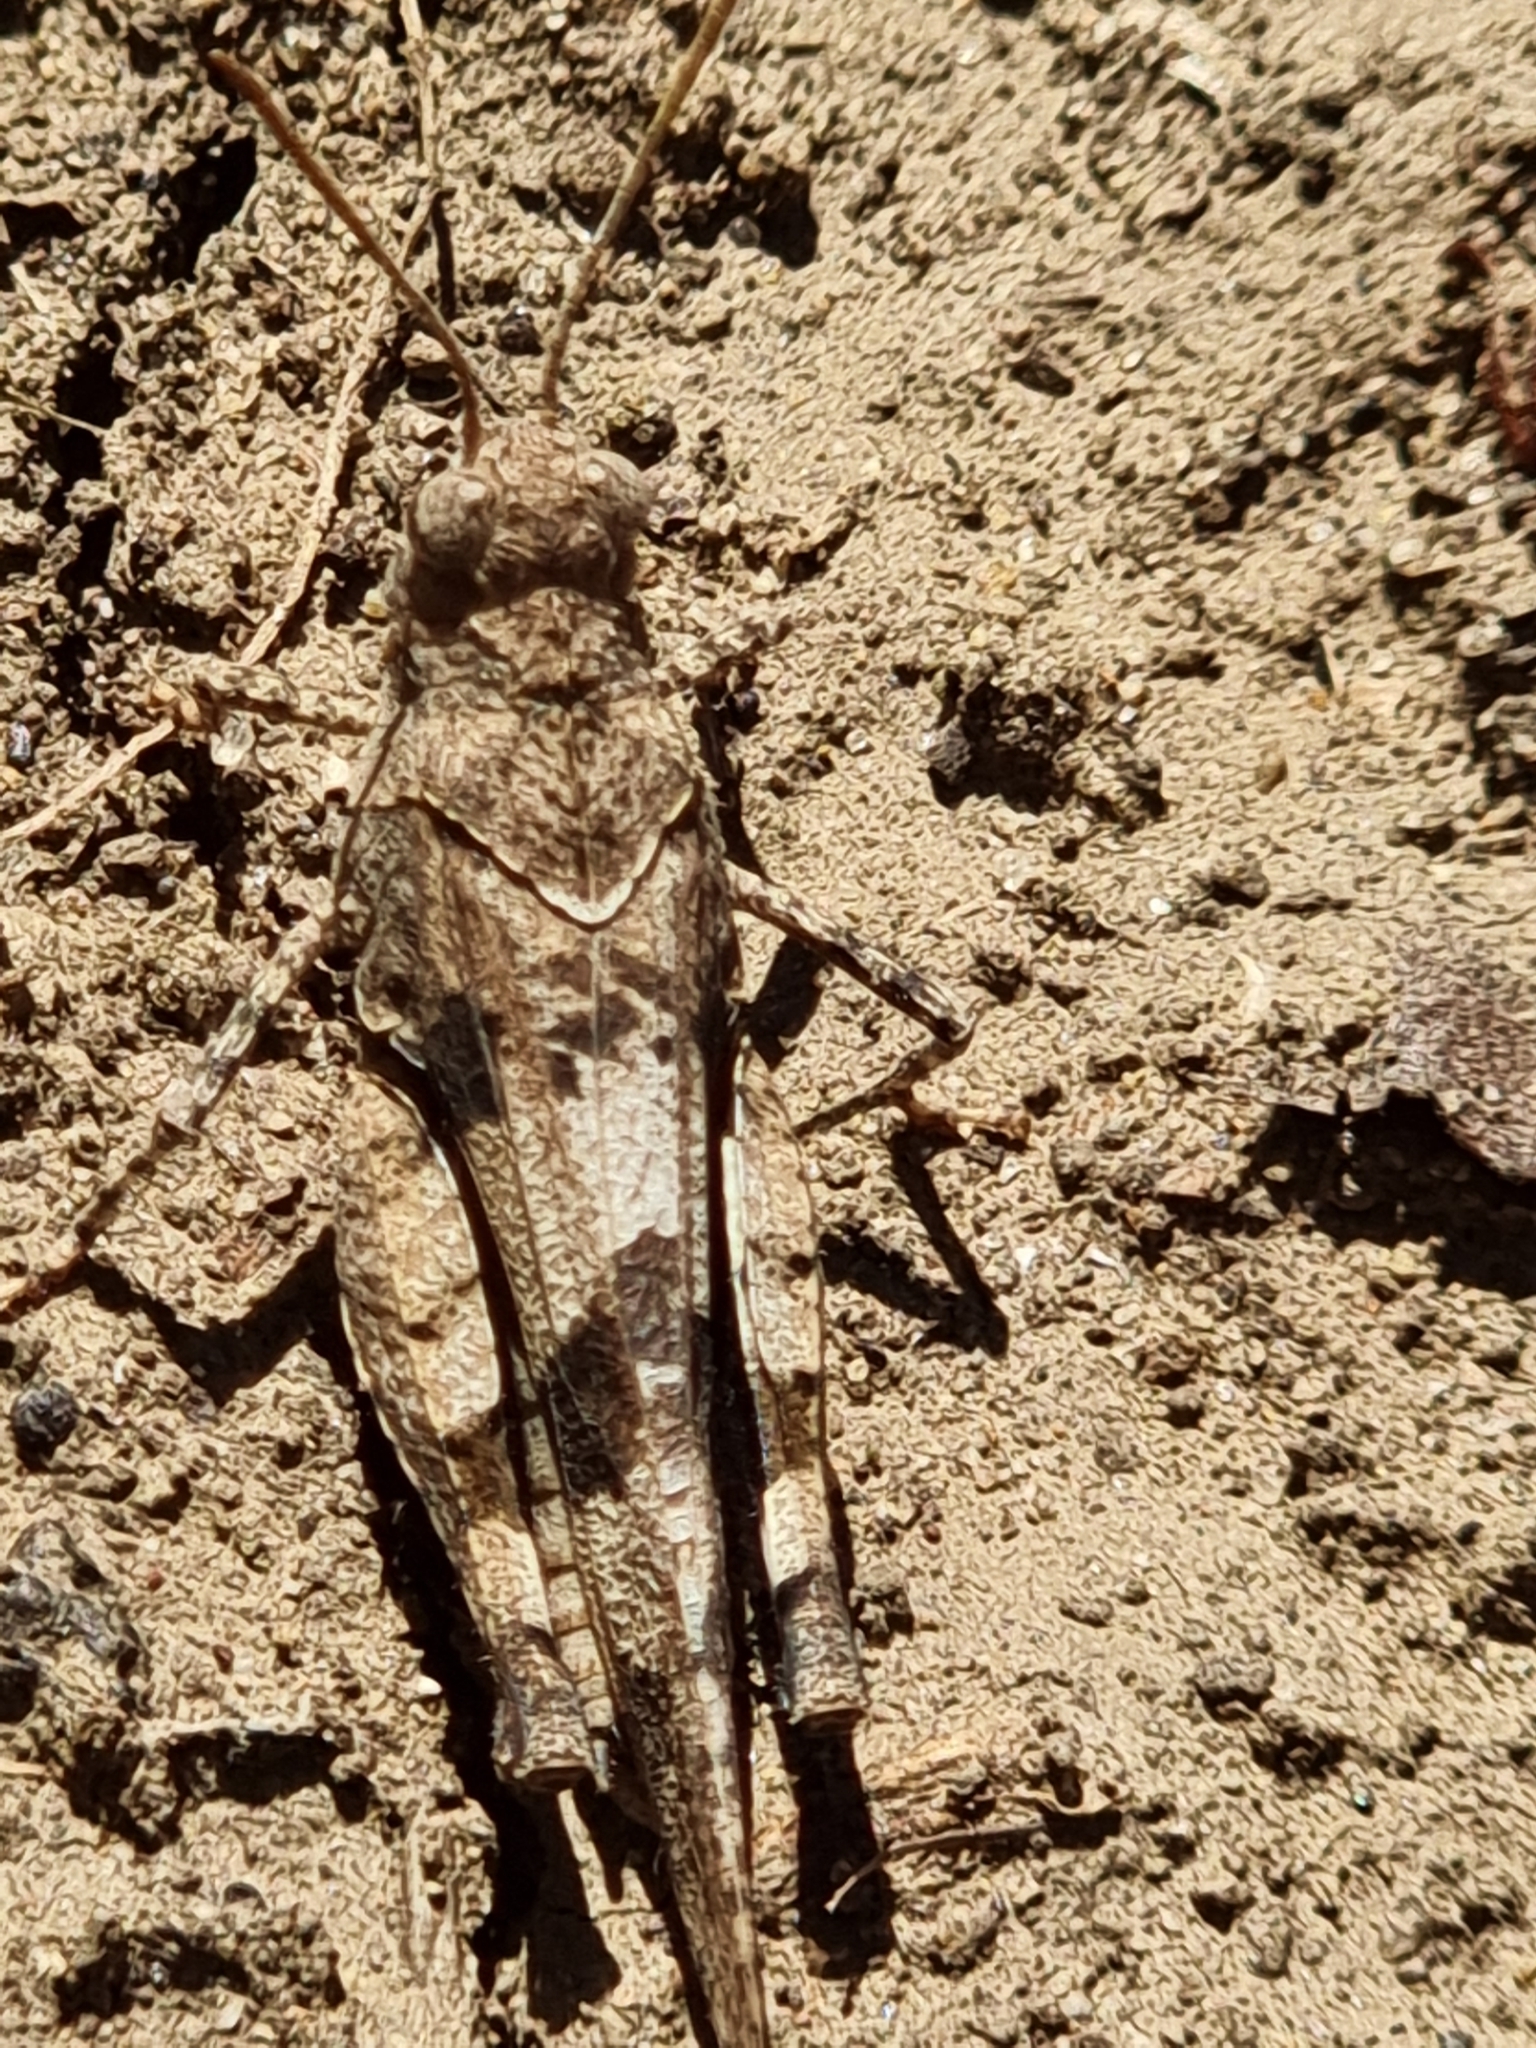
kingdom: Animalia
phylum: Arthropoda
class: Insecta
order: Orthoptera
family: Acrididae
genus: Oedipoda
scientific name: Oedipoda caerulescens
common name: Blue-winged grasshopper
